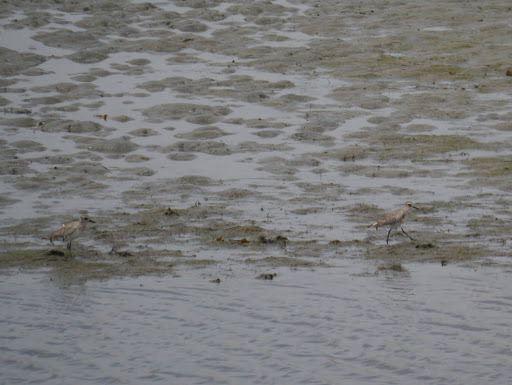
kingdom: Animalia
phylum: Chordata
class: Aves
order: Charadriiformes
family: Charadriidae
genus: Pluvialis
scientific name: Pluvialis squatarola
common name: Grey plover
